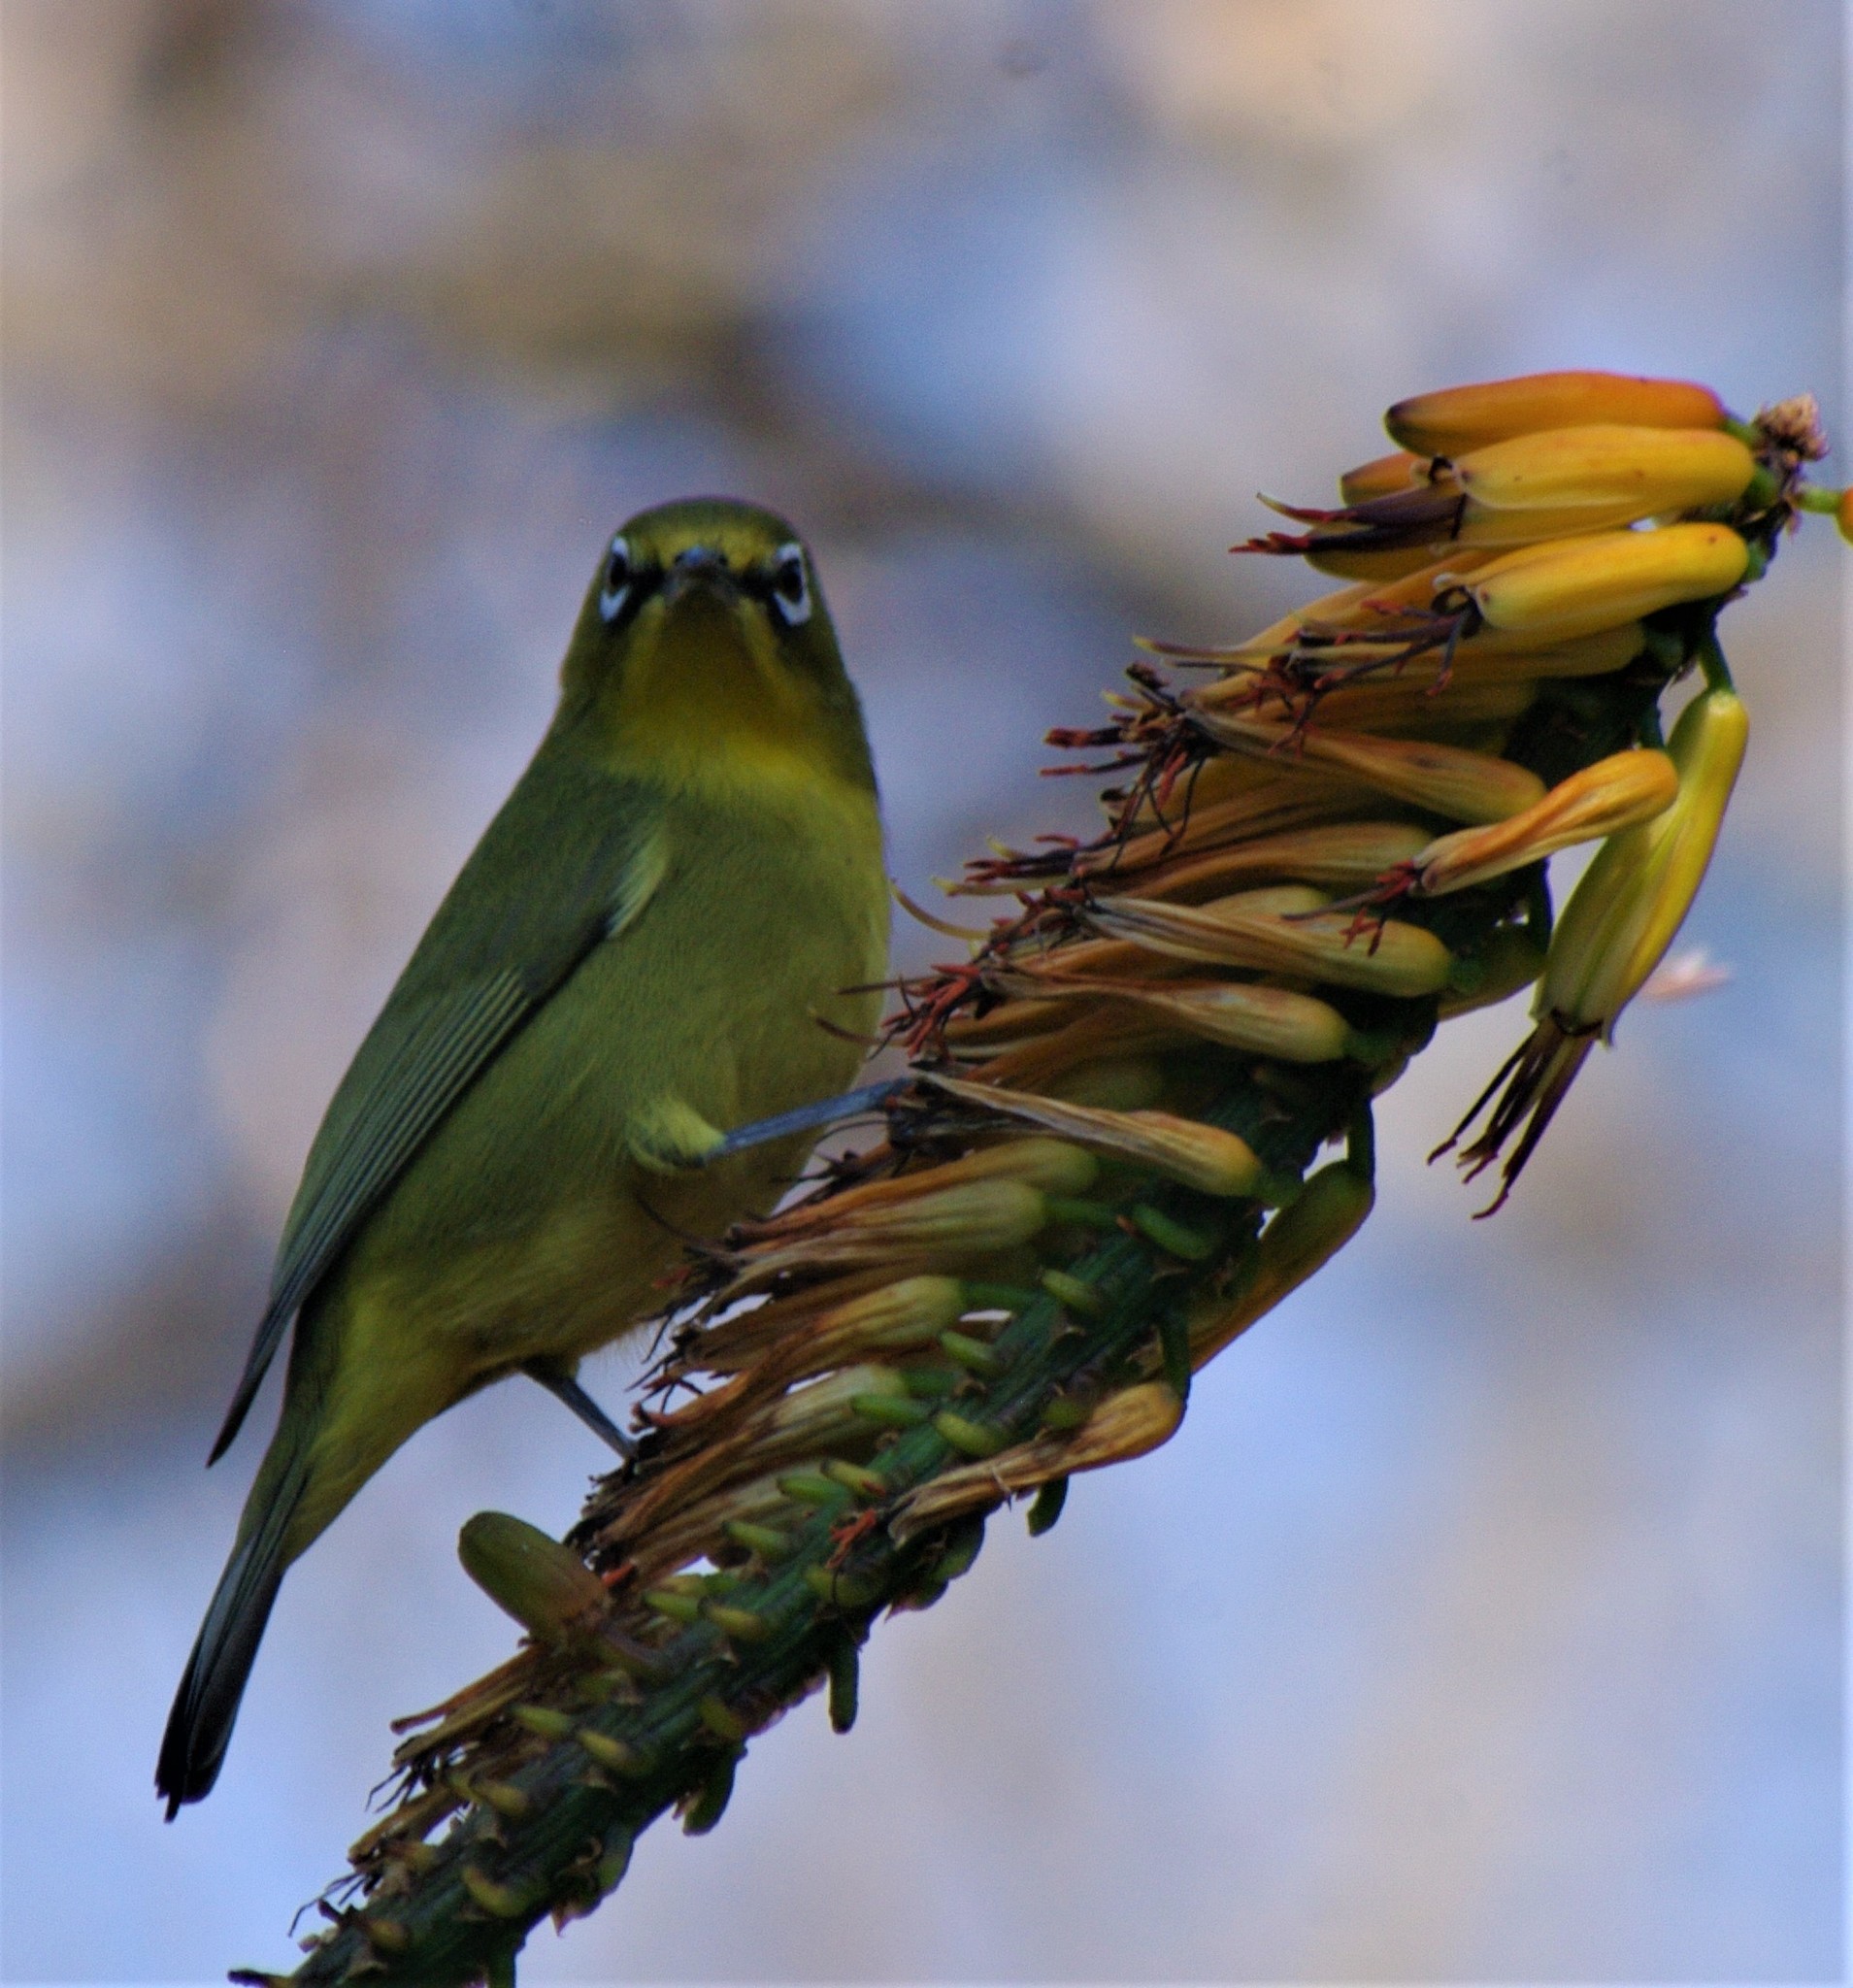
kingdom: Animalia
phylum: Chordata
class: Aves
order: Passeriformes
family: Zosteropidae
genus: Zosterops
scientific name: Zosterops virens
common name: Cape white-eye
